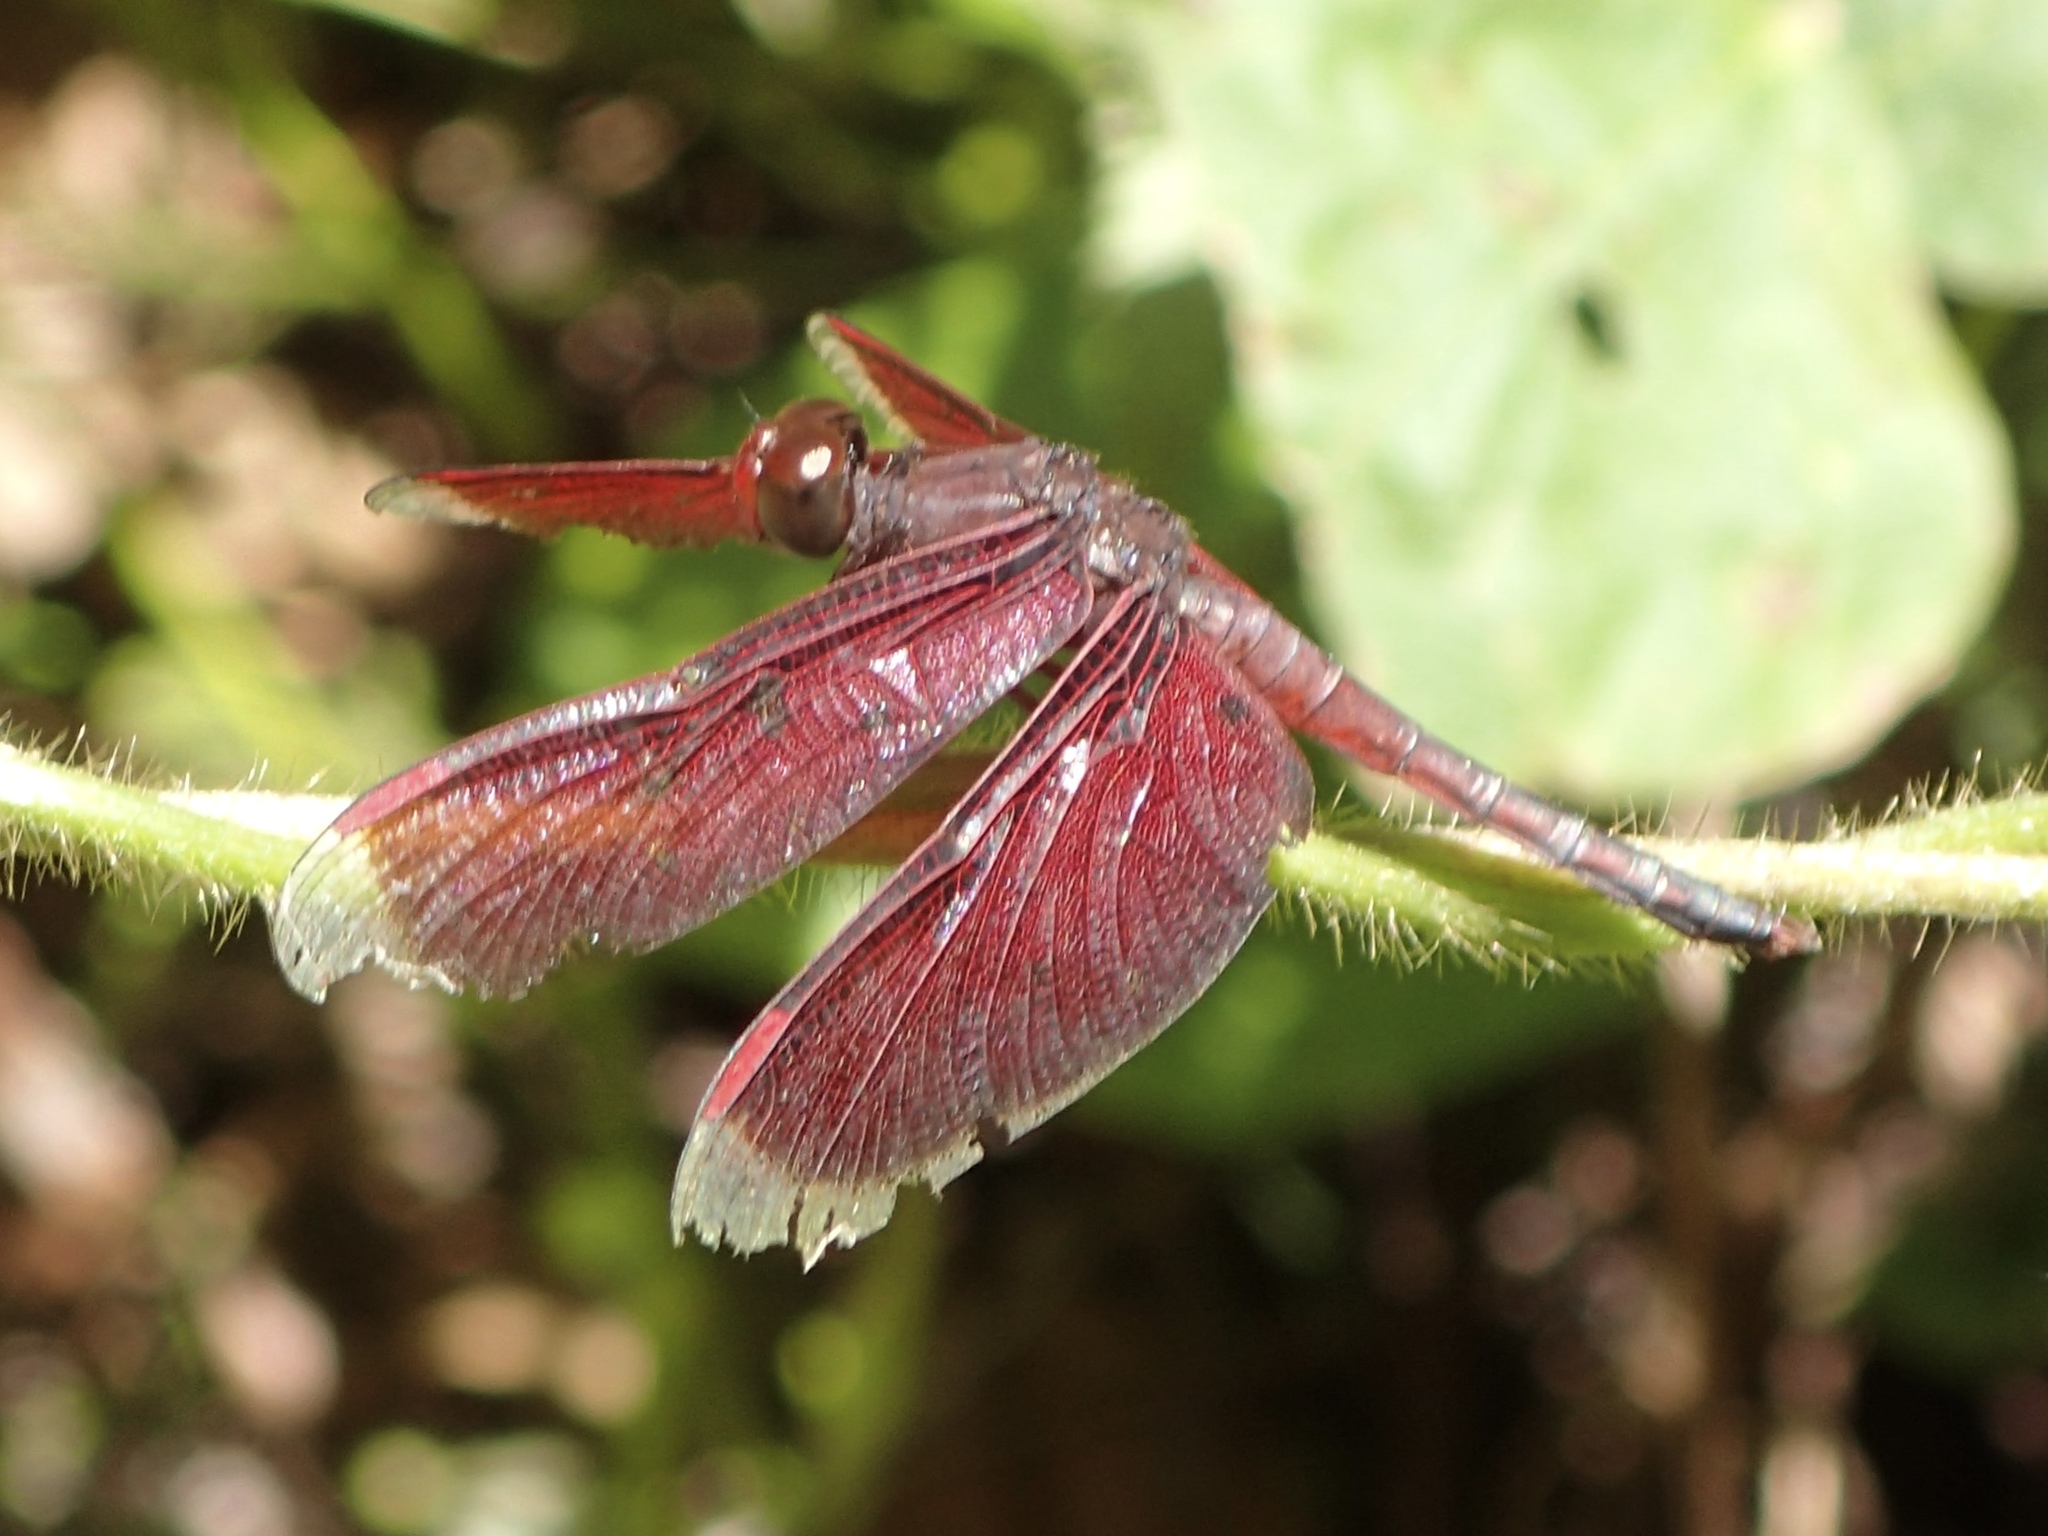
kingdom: Animalia
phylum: Arthropoda
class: Insecta
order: Odonata
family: Libellulidae
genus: Neurothemis
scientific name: Neurothemis stigmatizans
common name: Painted grasshawk
